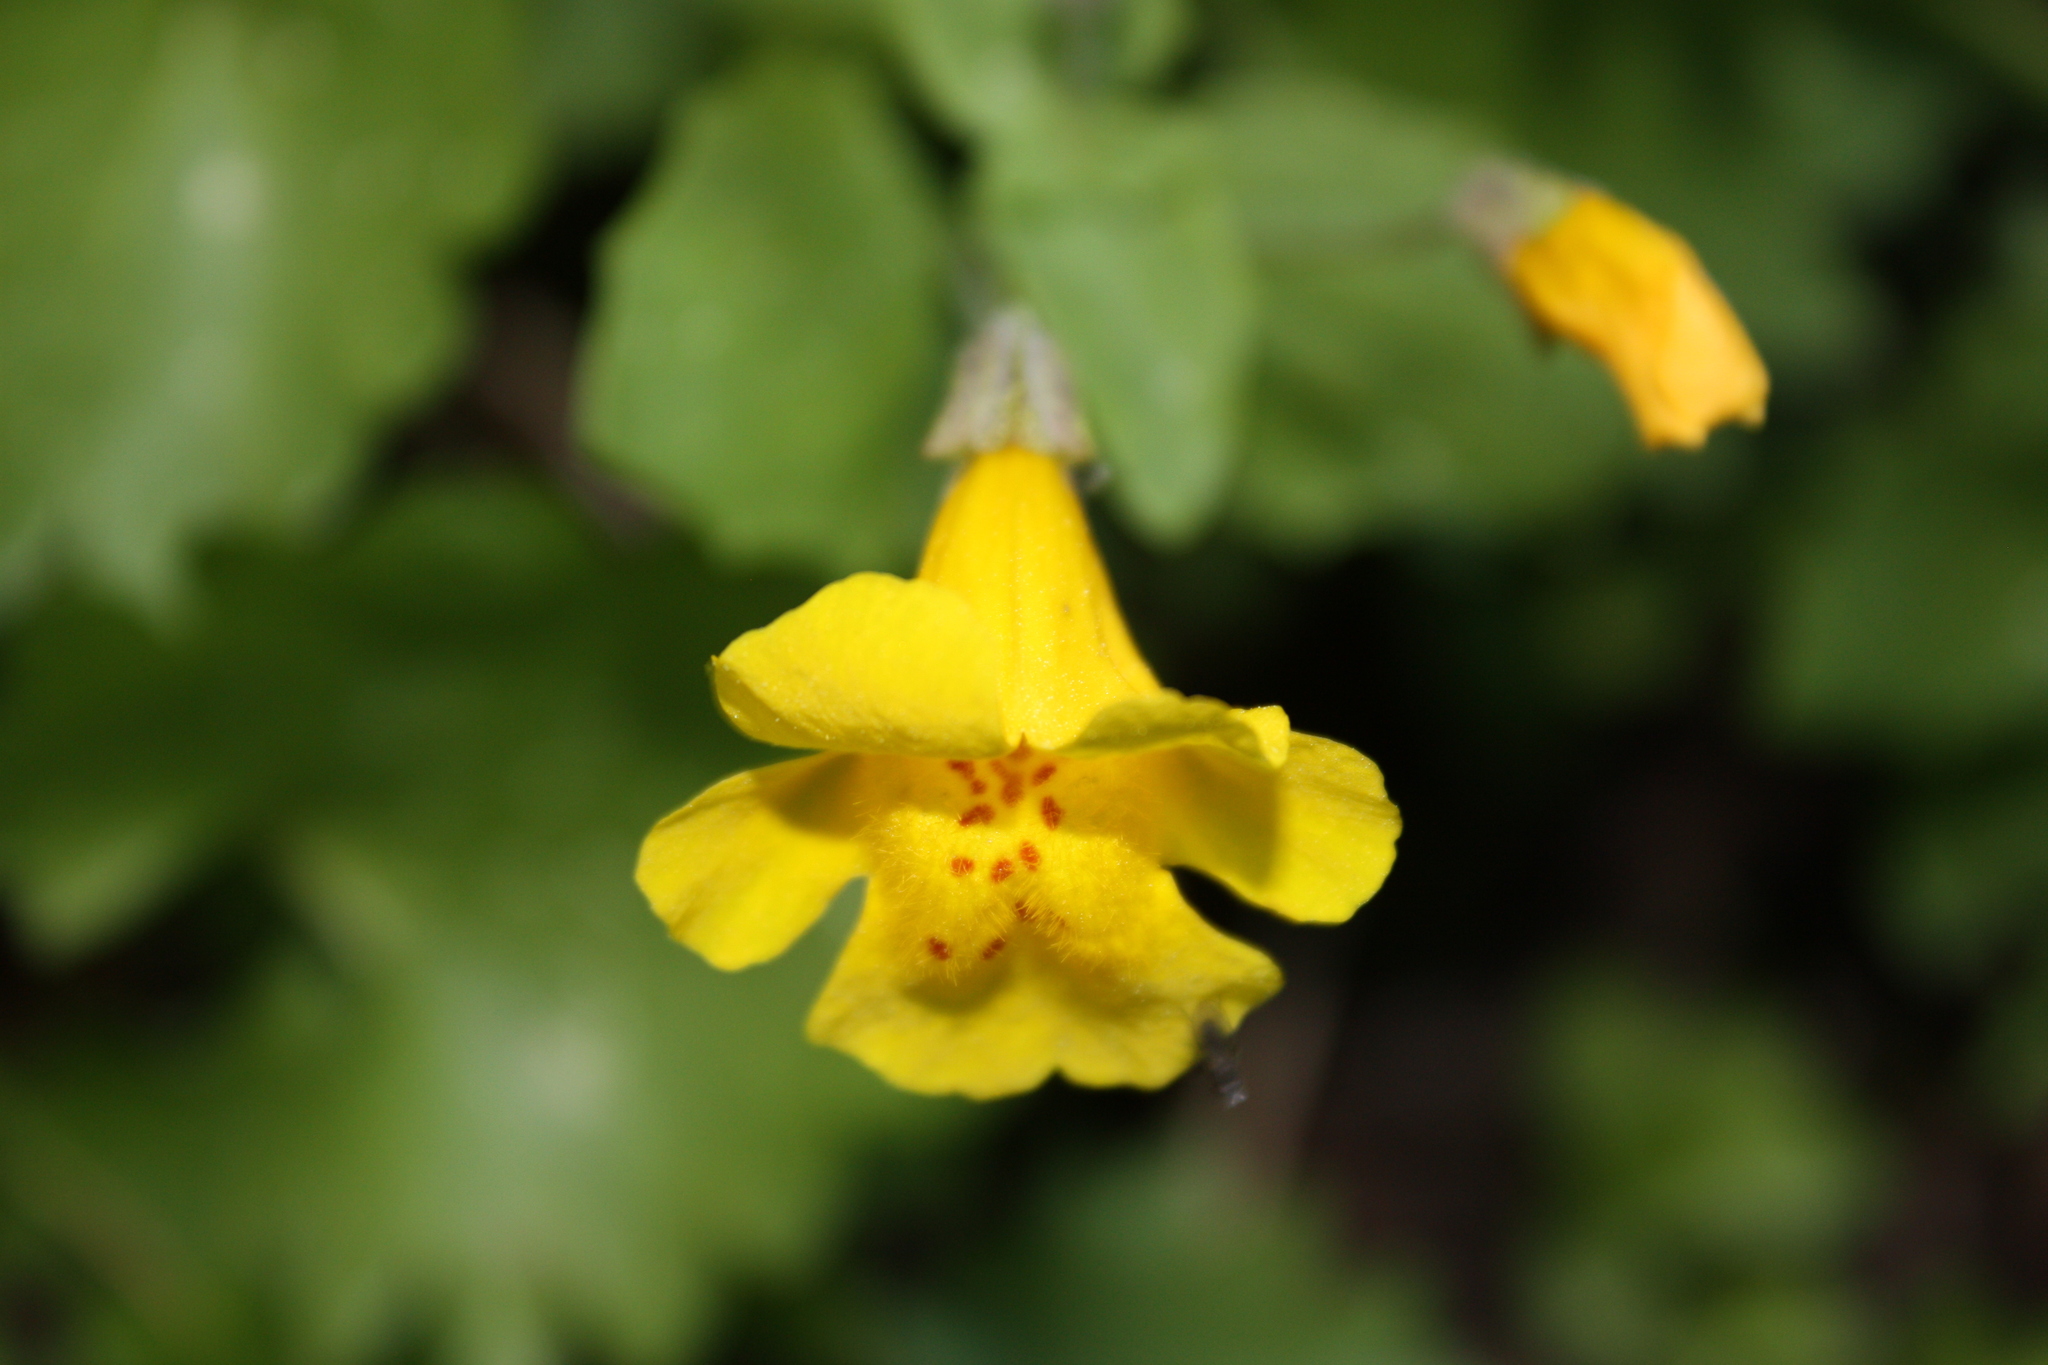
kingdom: Plantae
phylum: Tracheophyta
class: Magnoliopsida
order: Lamiales
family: Phrymaceae
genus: Erythranthe
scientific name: Erythranthe tilingii
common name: Subalpine monkey-flower
